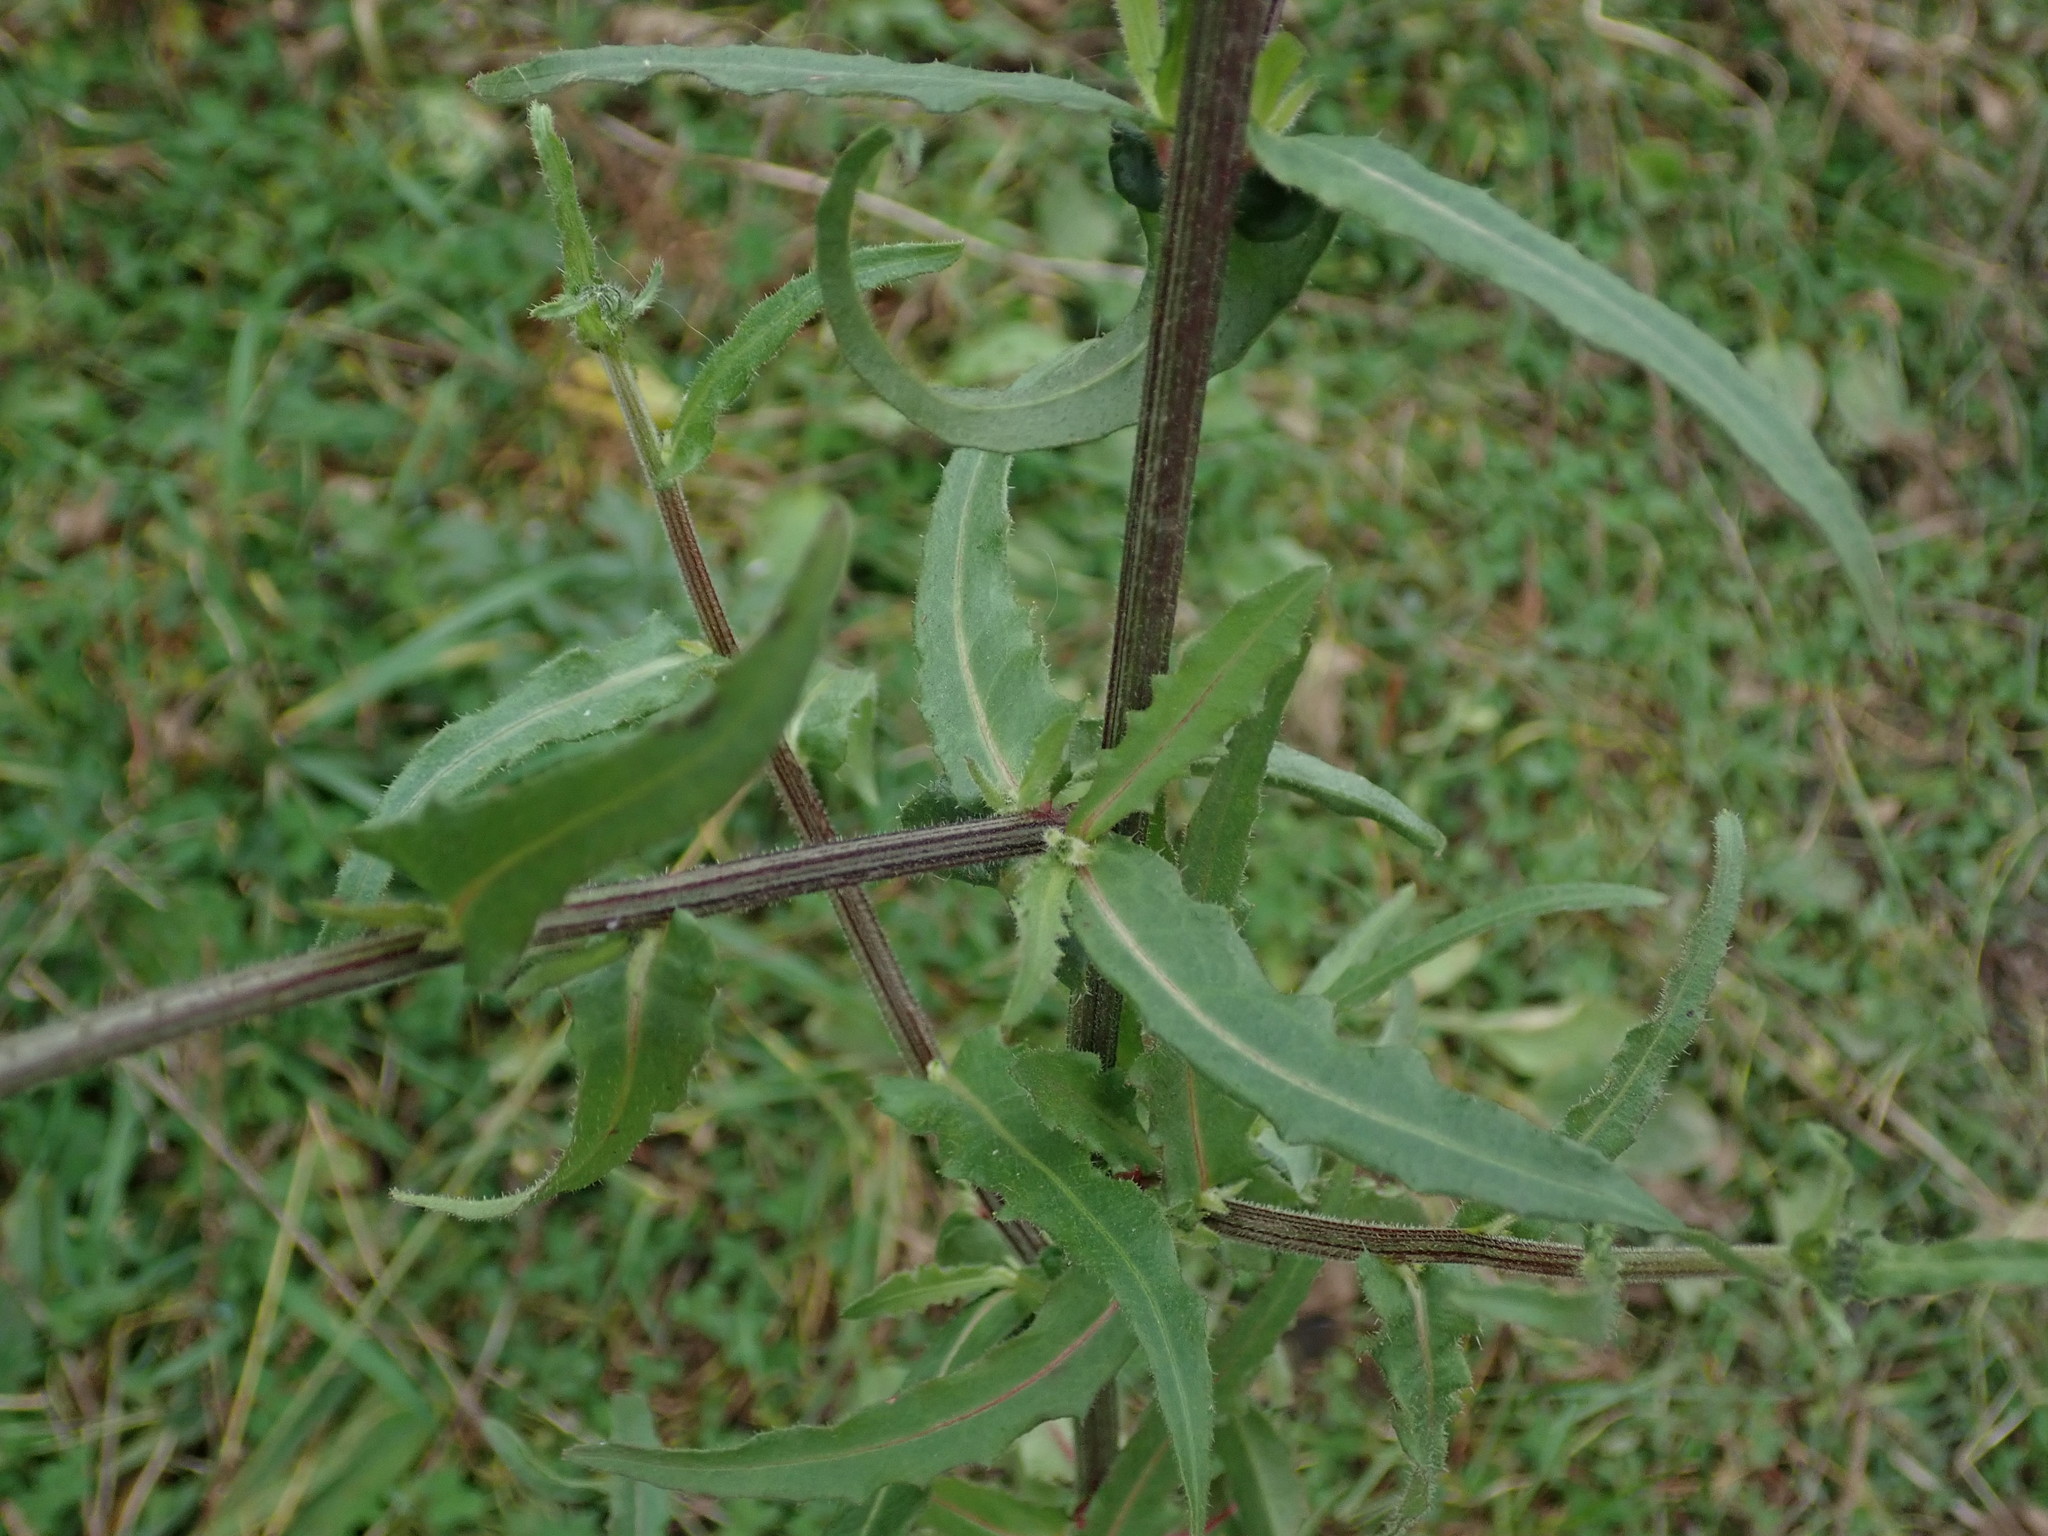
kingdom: Plantae
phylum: Tracheophyta
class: Magnoliopsida
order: Asterales
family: Asteraceae
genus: Picris
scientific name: Picris hieracioides
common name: Hawkweed oxtongue
